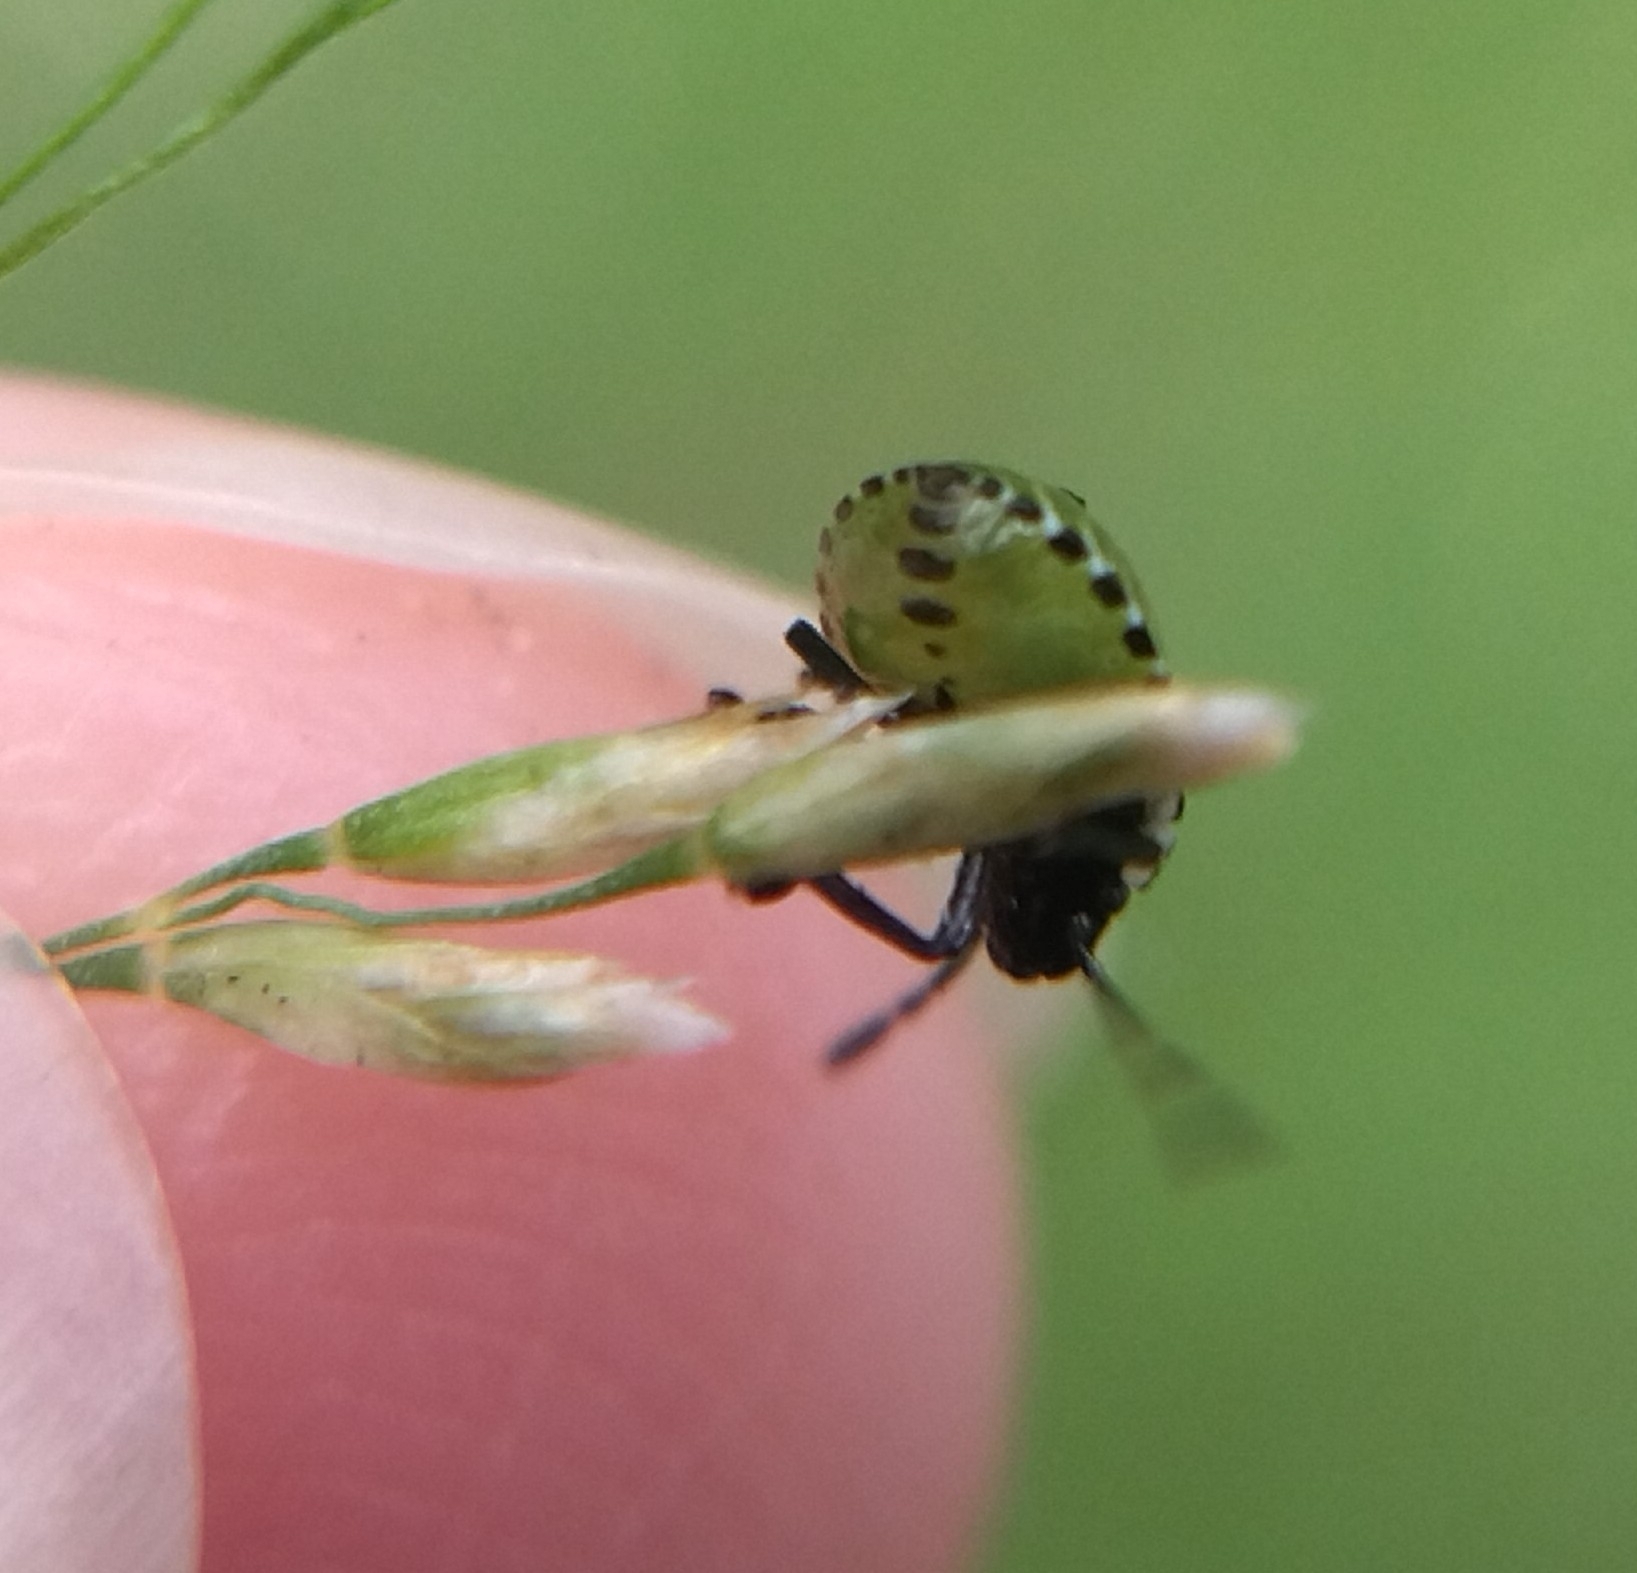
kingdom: Animalia
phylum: Arthropoda
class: Insecta
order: Hemiptera
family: Pentatomidae
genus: Palomena
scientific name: Palomena prasina
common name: Green shieldbug
